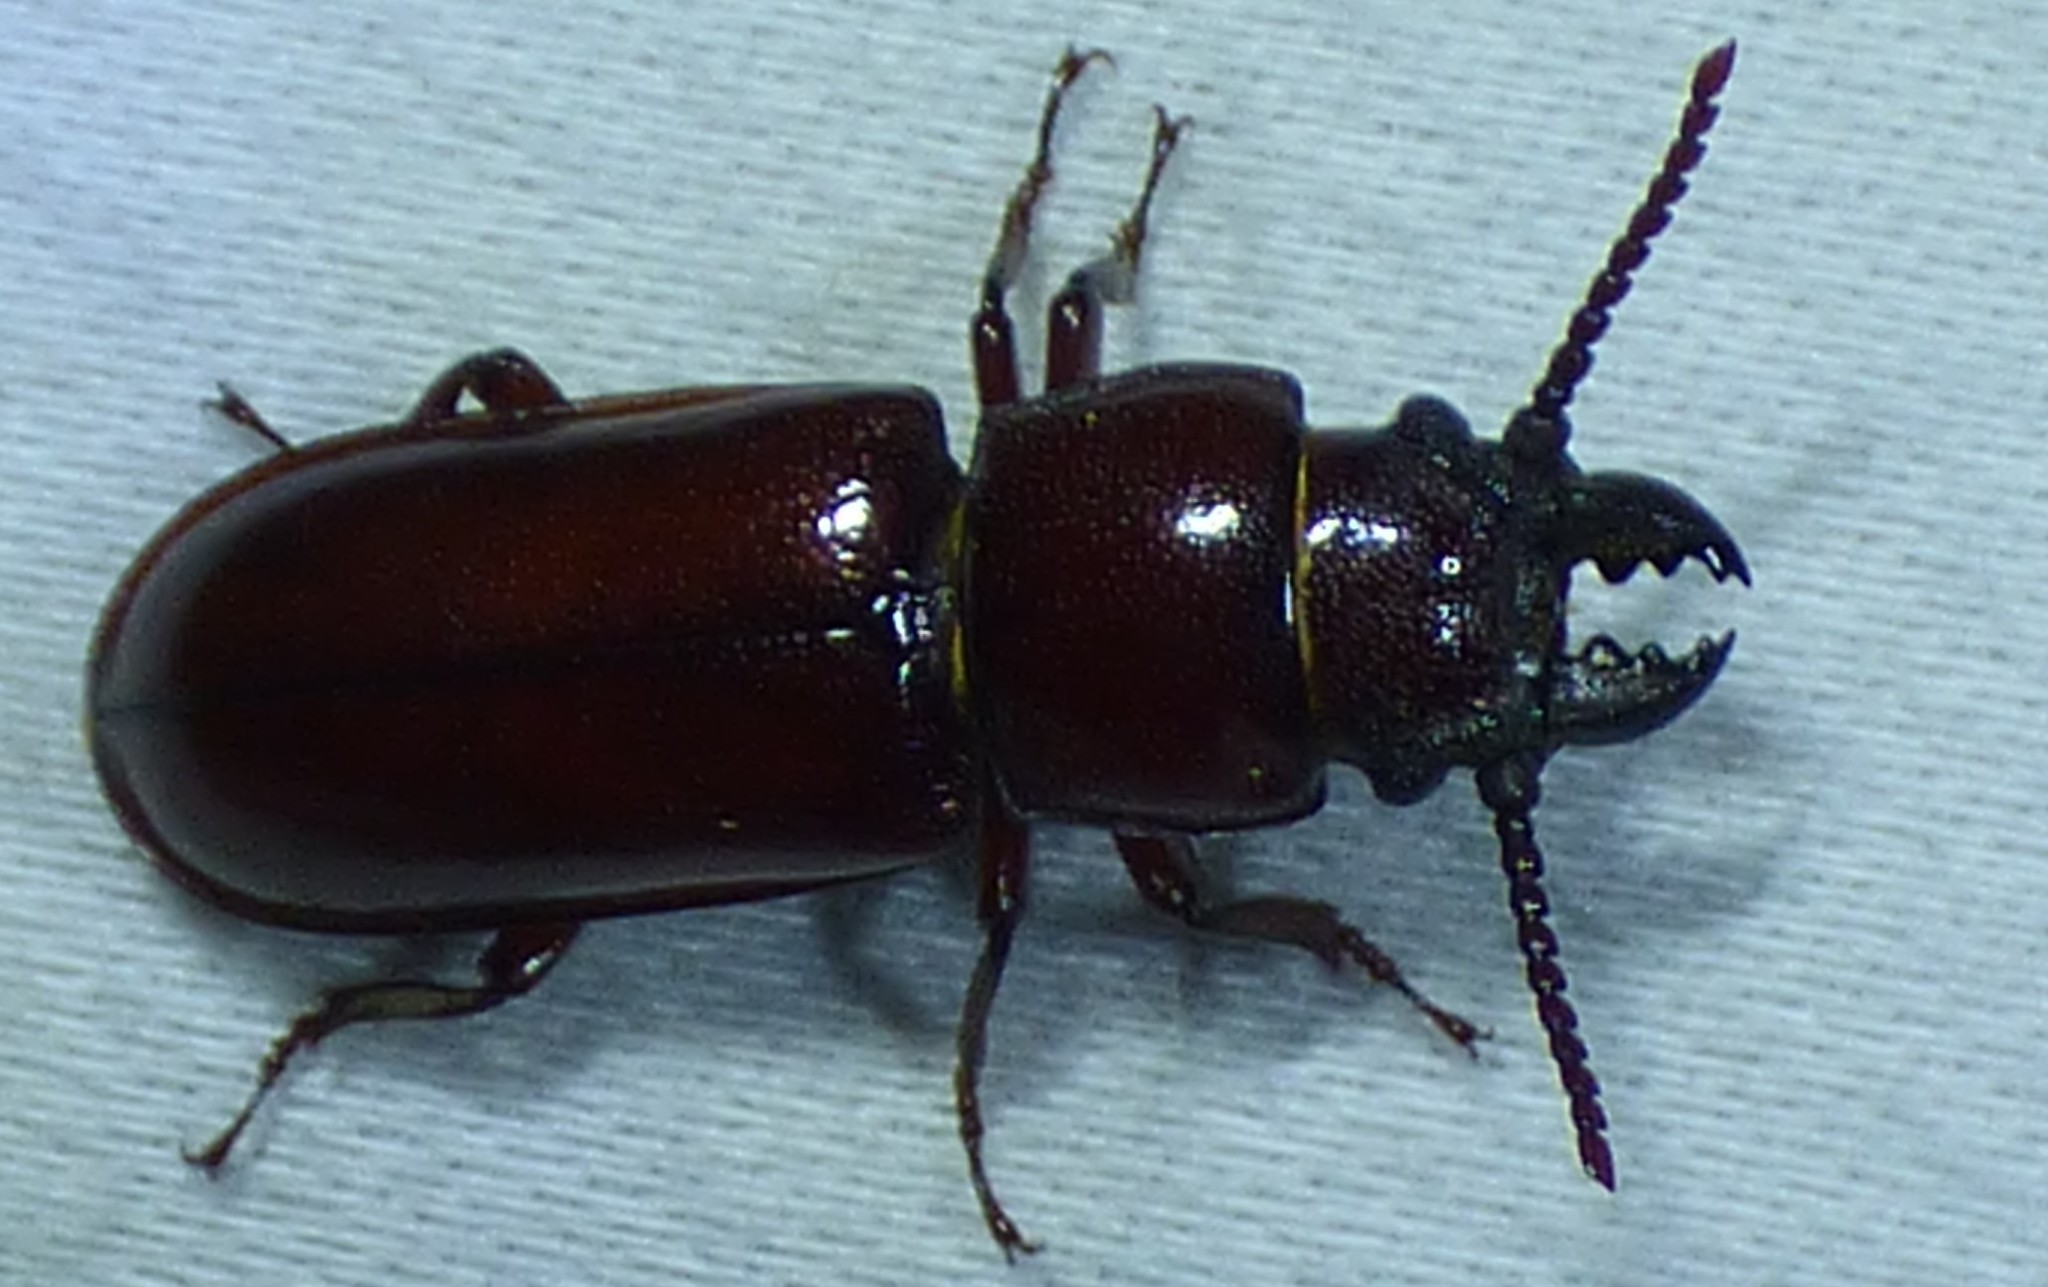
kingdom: Animalia
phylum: Arthropoda
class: Insecta
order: Coleoptera
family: Cerambycidae
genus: Neandra
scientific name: Neandra brunnea
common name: Pole borer
